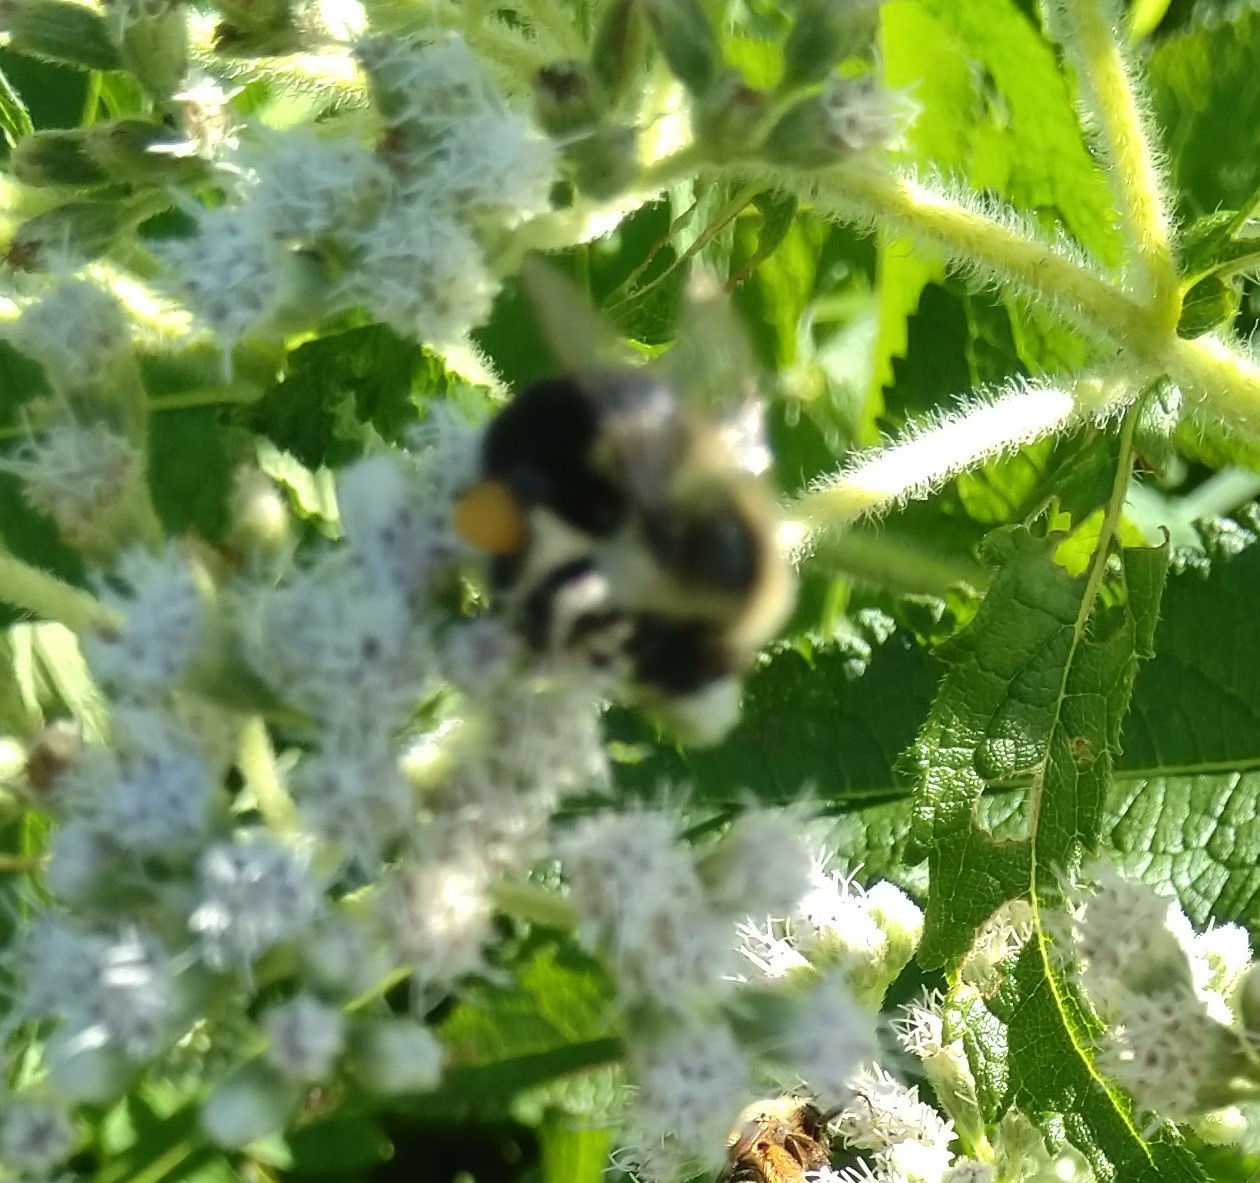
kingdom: Animalia
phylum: Arthropoda
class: Insecta
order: Hymenoptera
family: Apidae
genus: Bombus
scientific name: Bombus impatiens
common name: Common eastern bumble bee
